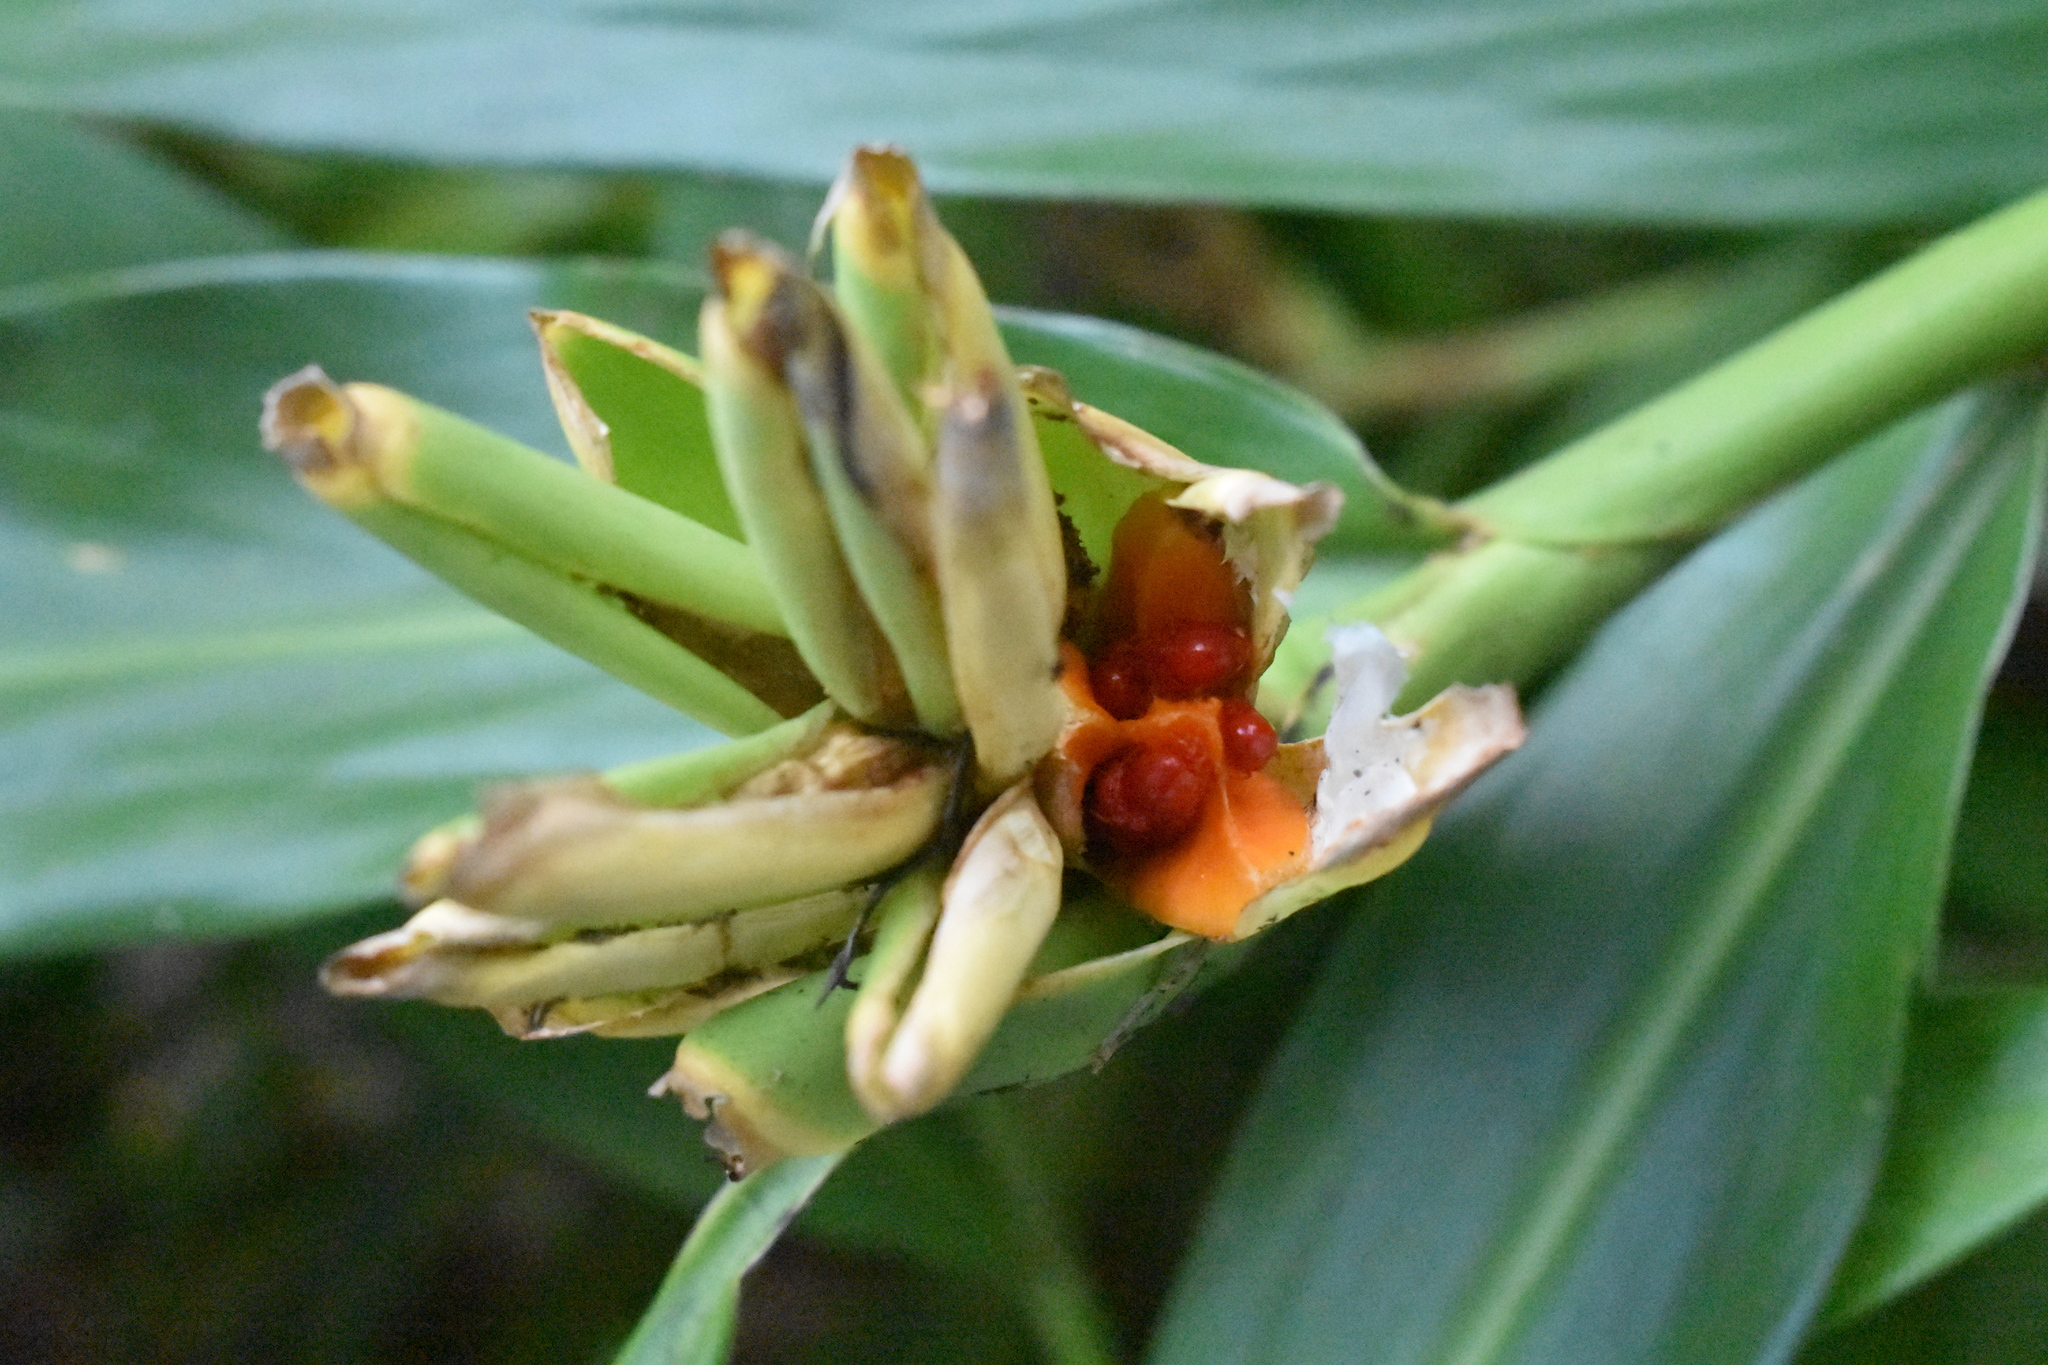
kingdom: Plantae
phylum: Tracheophyta
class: Liliopsida
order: Zingiberales
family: Zingiberaceae
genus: Hedychium
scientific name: Hedychium coronarium
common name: White garland-lily
